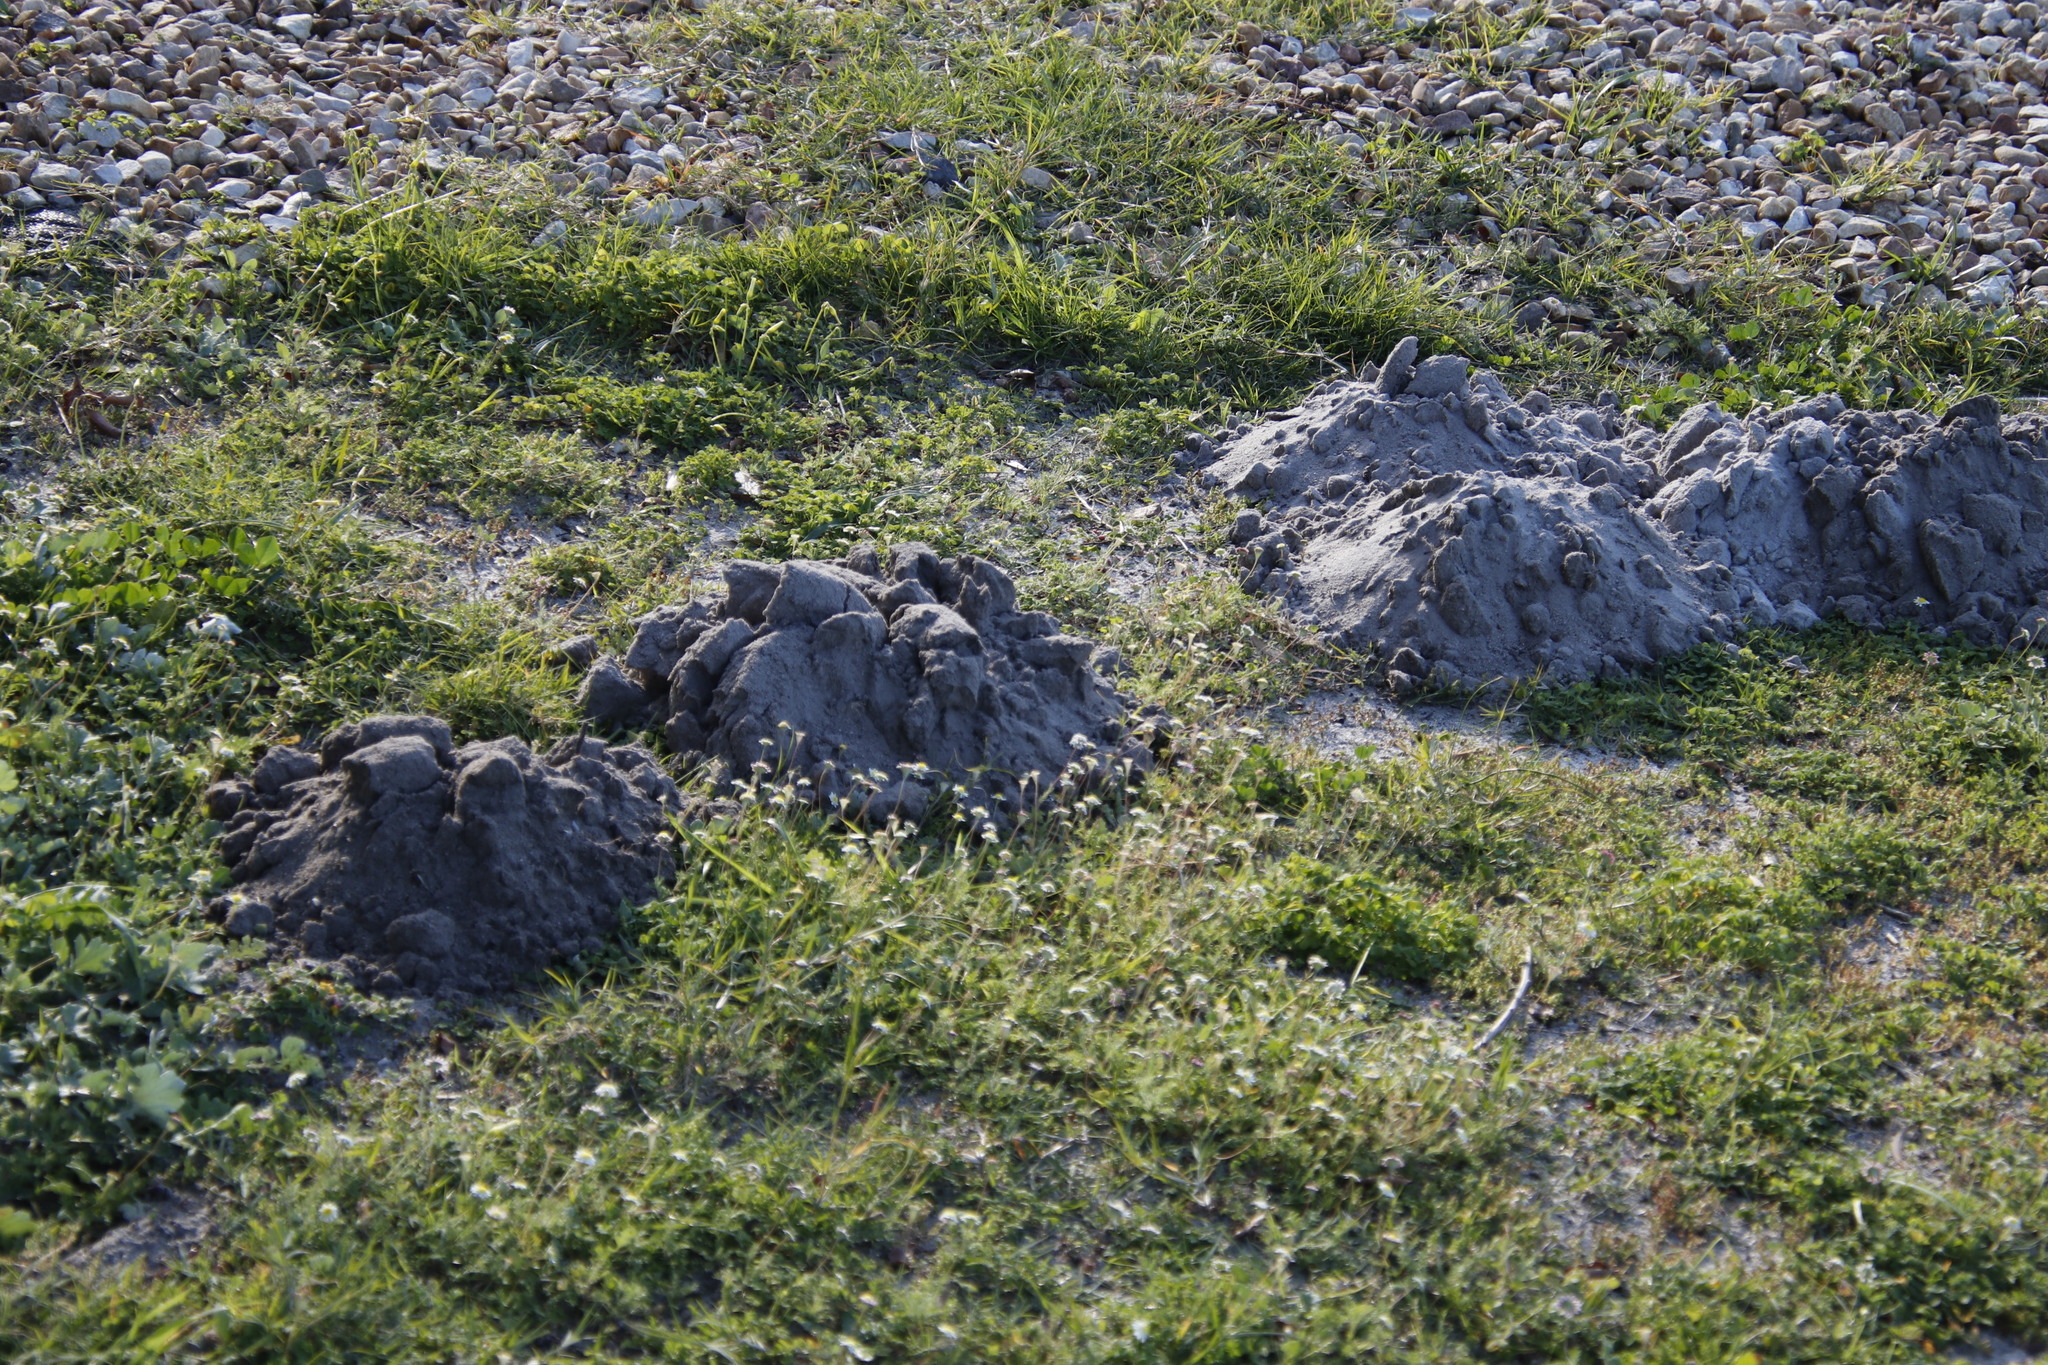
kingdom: Animalia
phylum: Chordata
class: Mammalia
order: Rodentia
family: Bathyergidae
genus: Bathyergus
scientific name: Bathyergus suillus
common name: Cape dune mole rat
